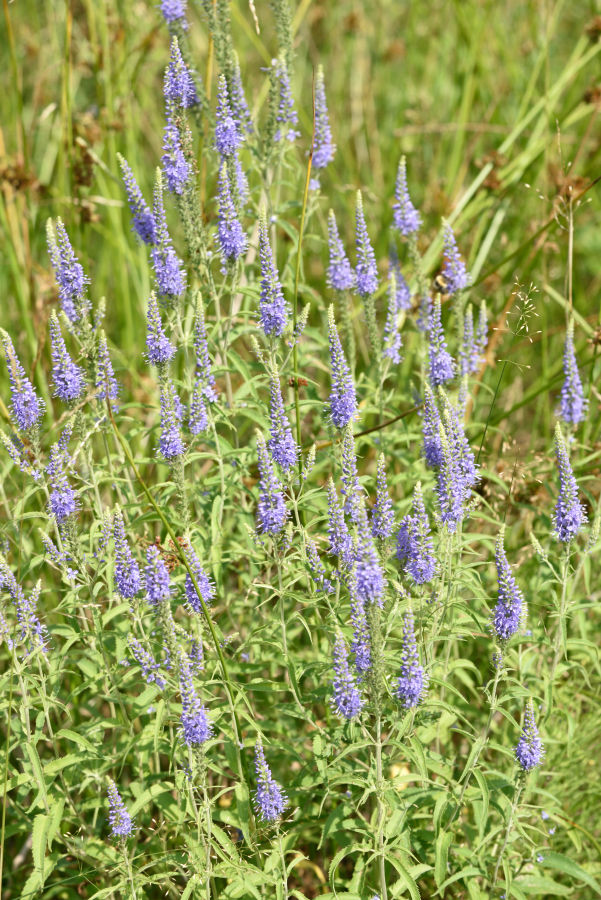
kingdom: Plantae
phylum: Tracheophyta
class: Magnoliopsida
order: Lamiales
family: Plantaginaceae
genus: Veronica
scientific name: Veronica longifolia
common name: Garden speedwell
